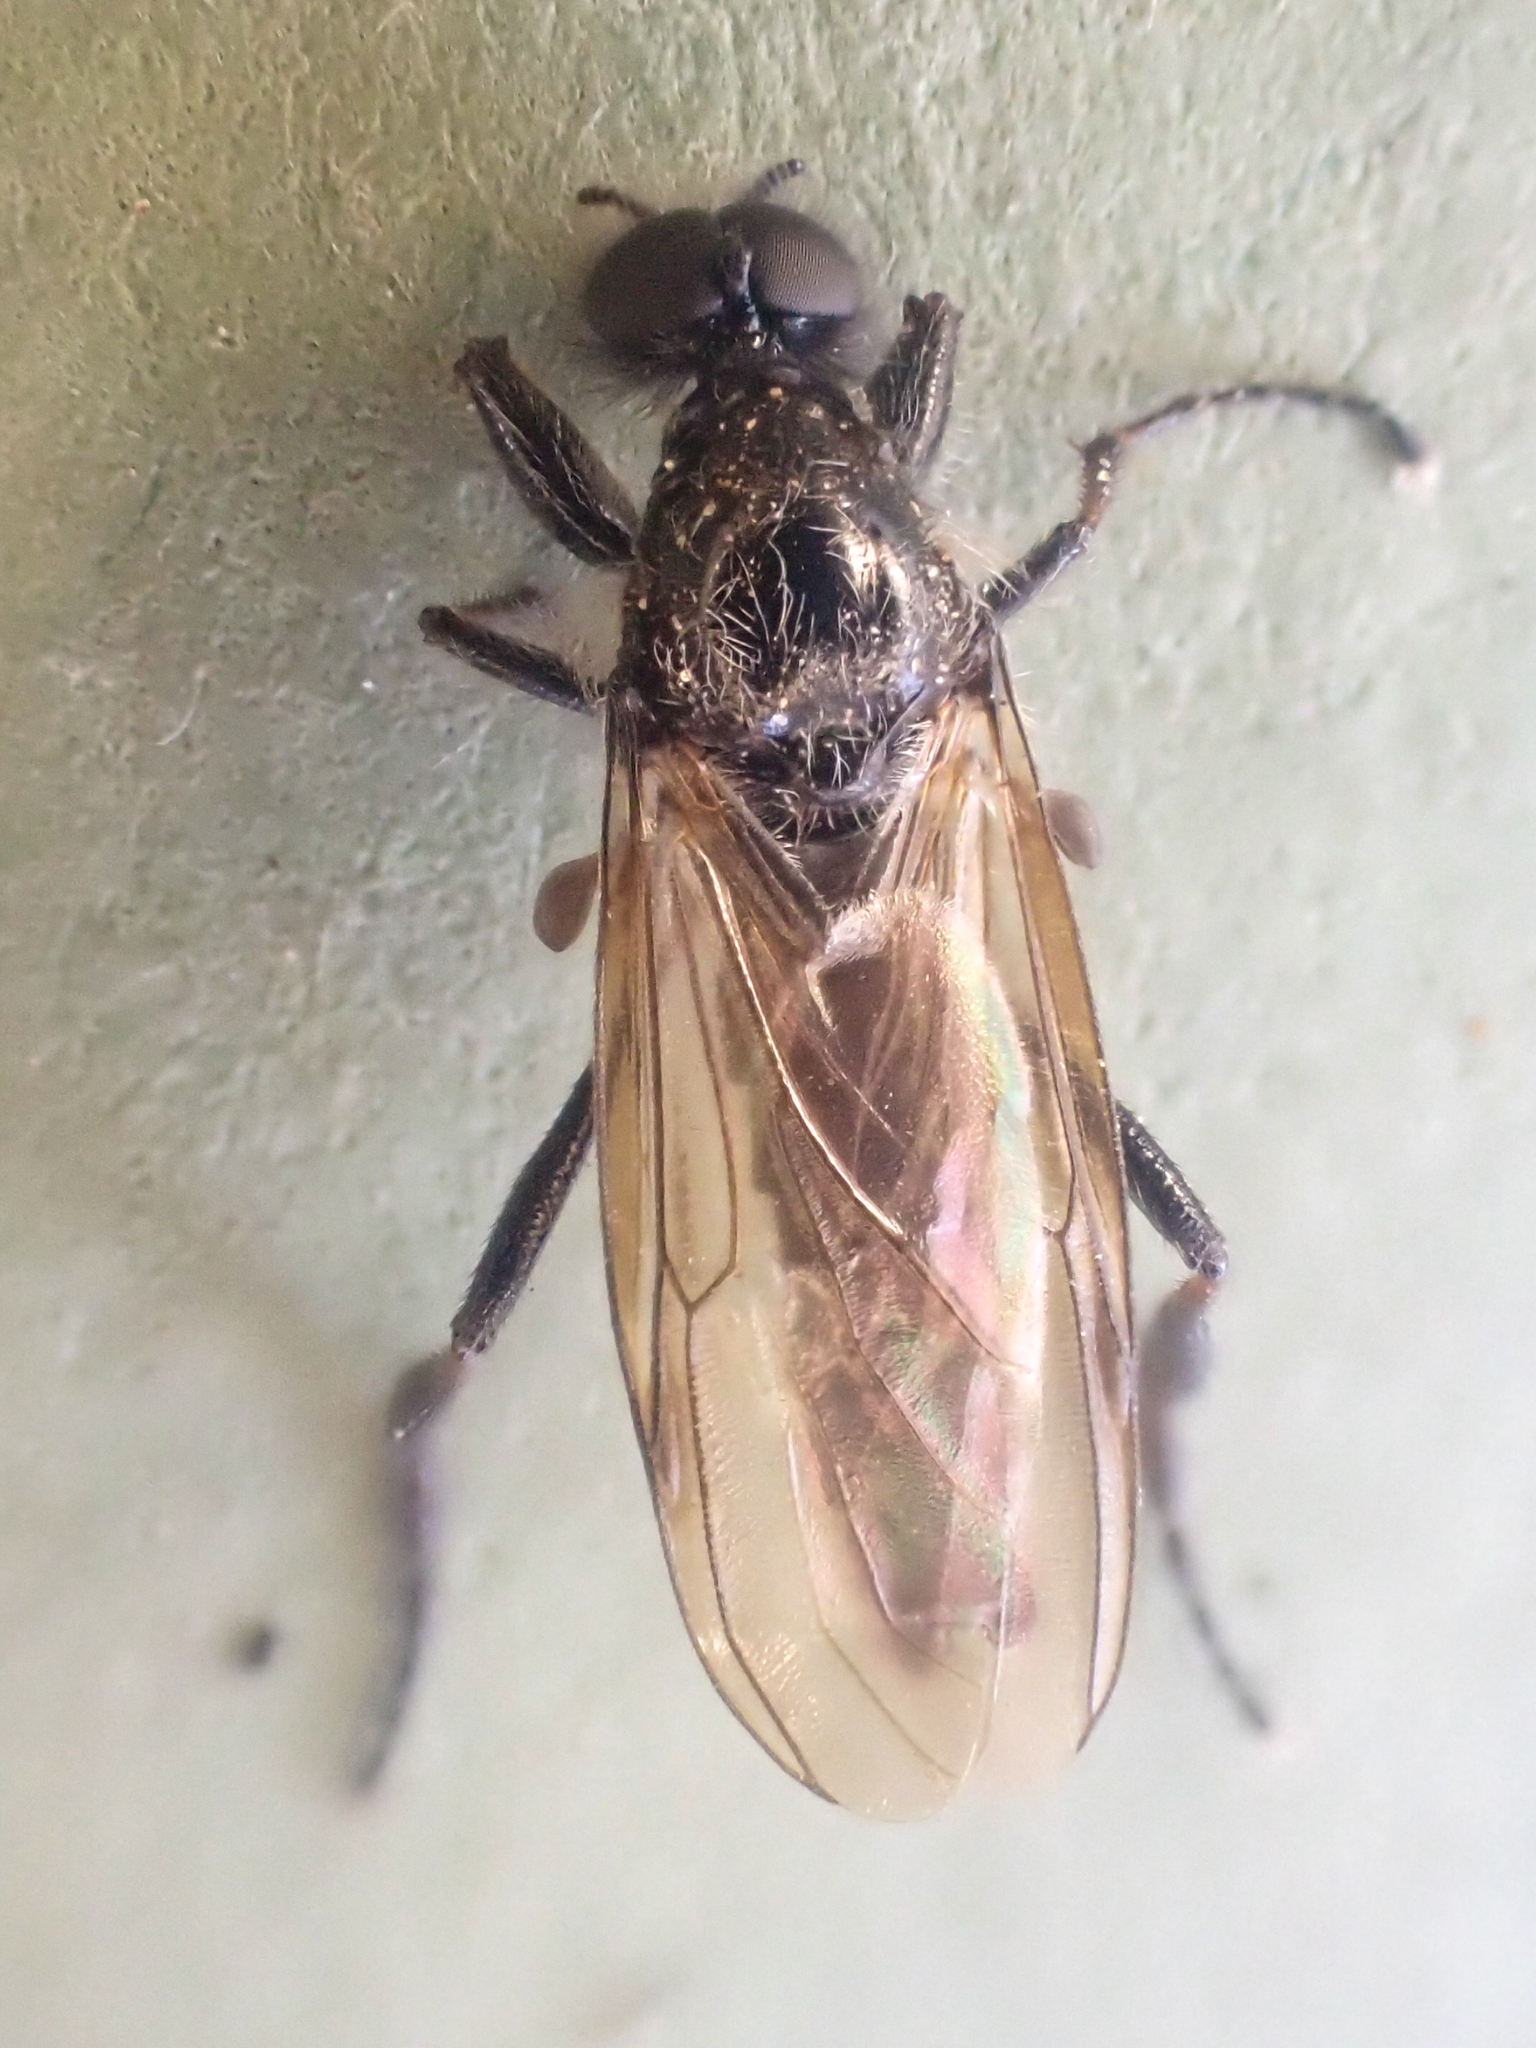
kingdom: Animalia
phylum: Arthropoda
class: Insecta
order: Diptera
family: Bibionidae
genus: Bibio
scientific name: Bibio brunnipes
